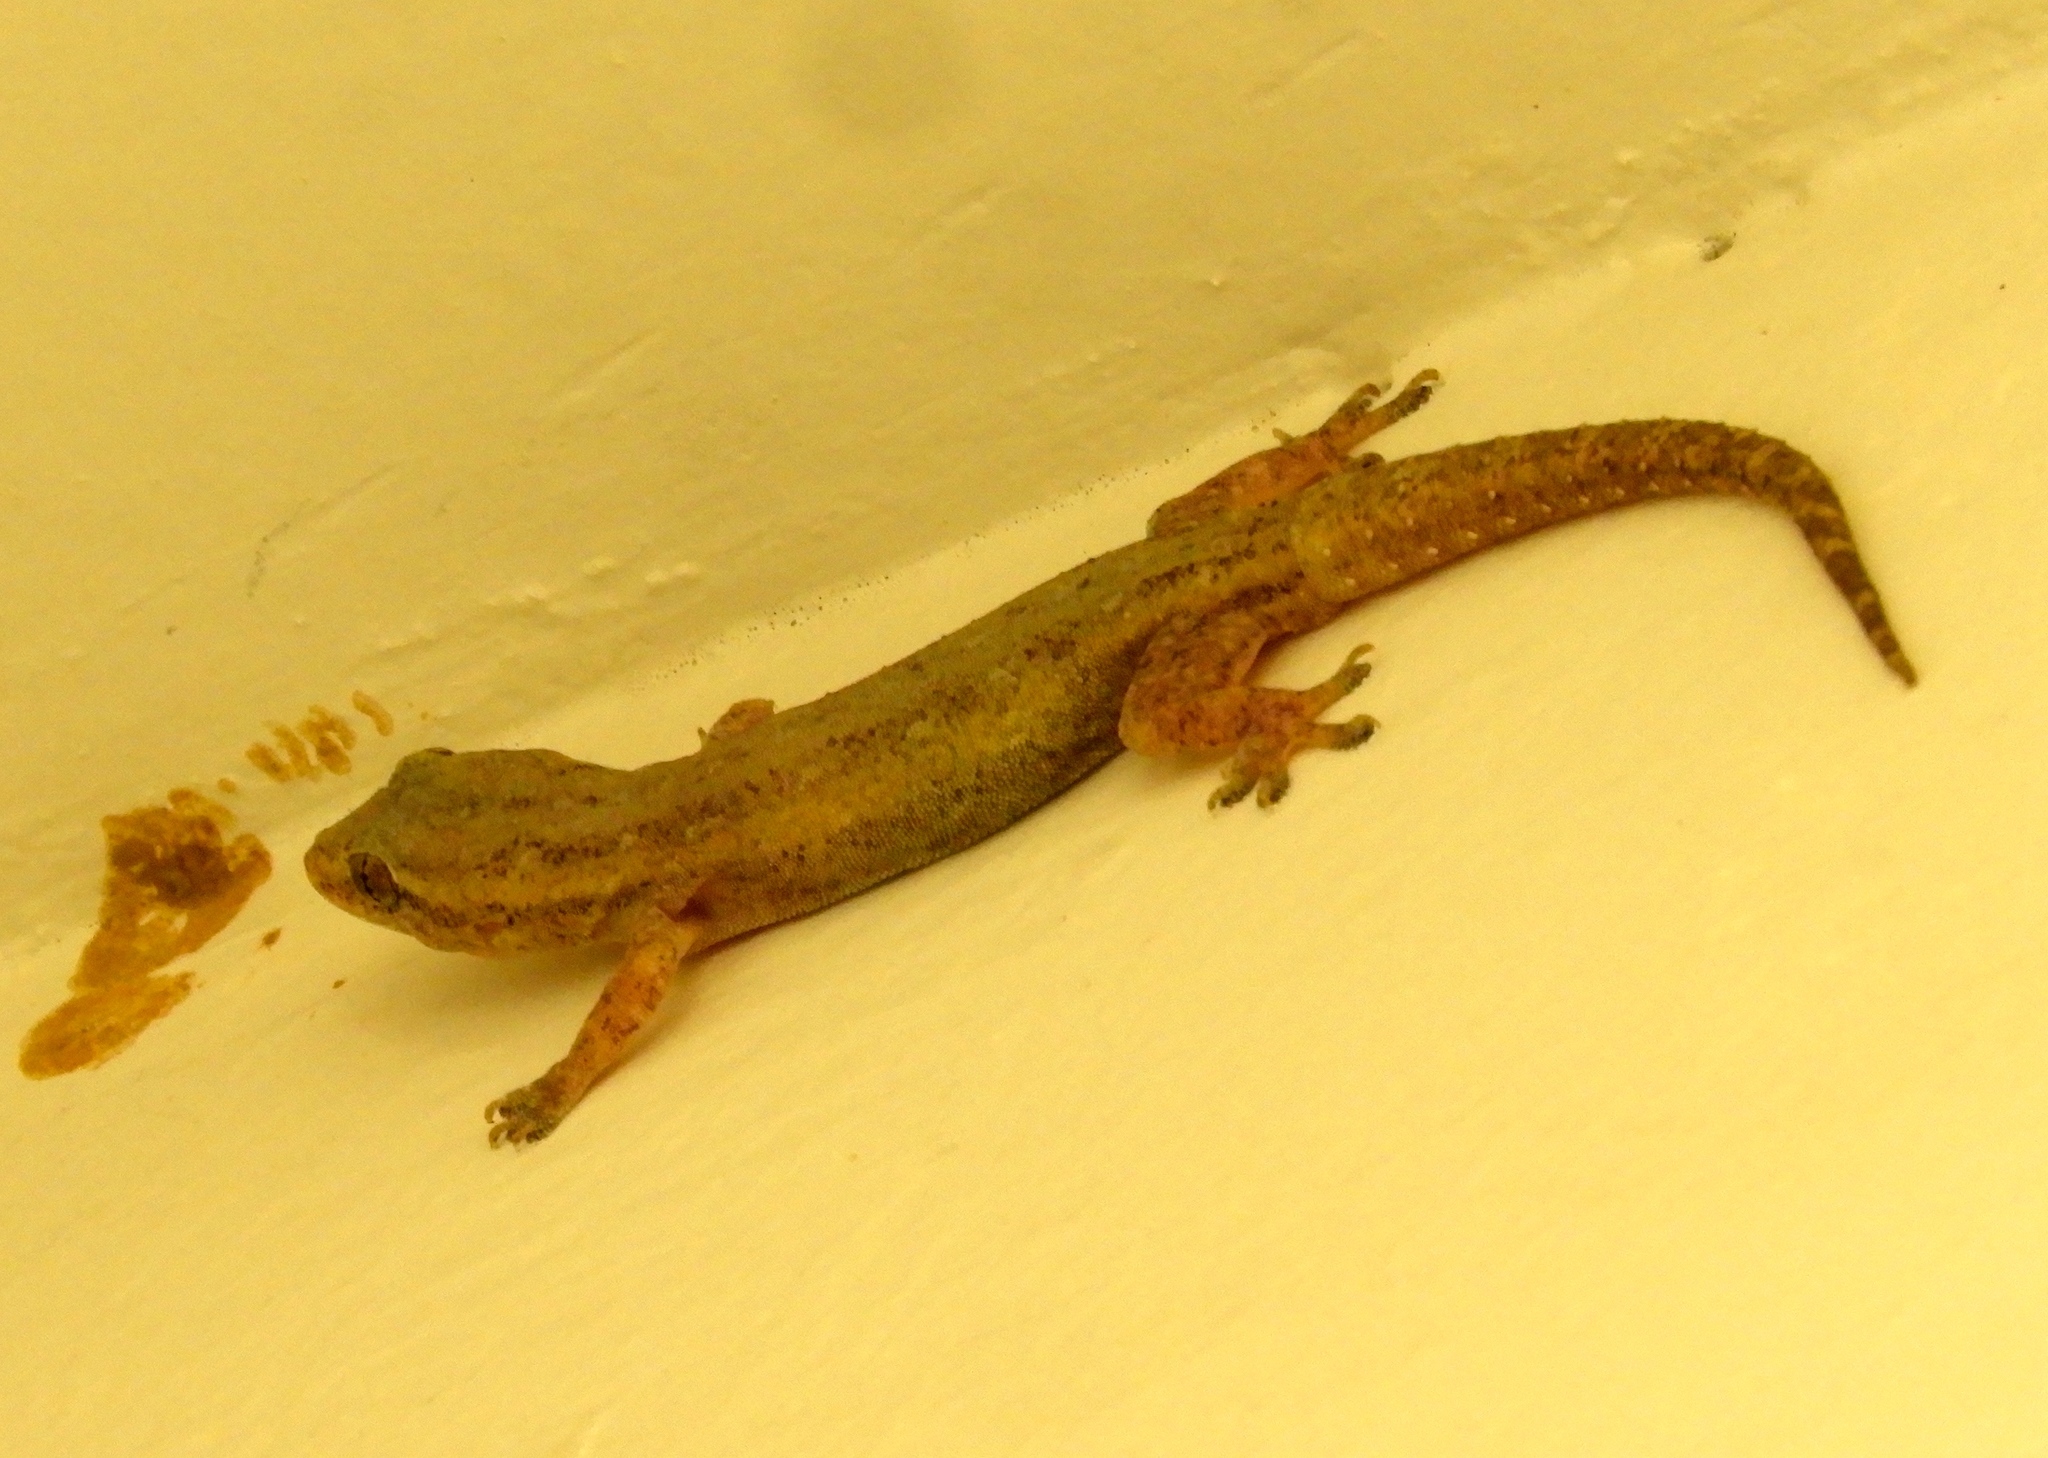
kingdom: Animalia
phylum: Chordata
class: Squamata
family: Gekkonidae
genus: Hemidactylus
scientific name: Hemidactylus frenatus
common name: Common house gecko
